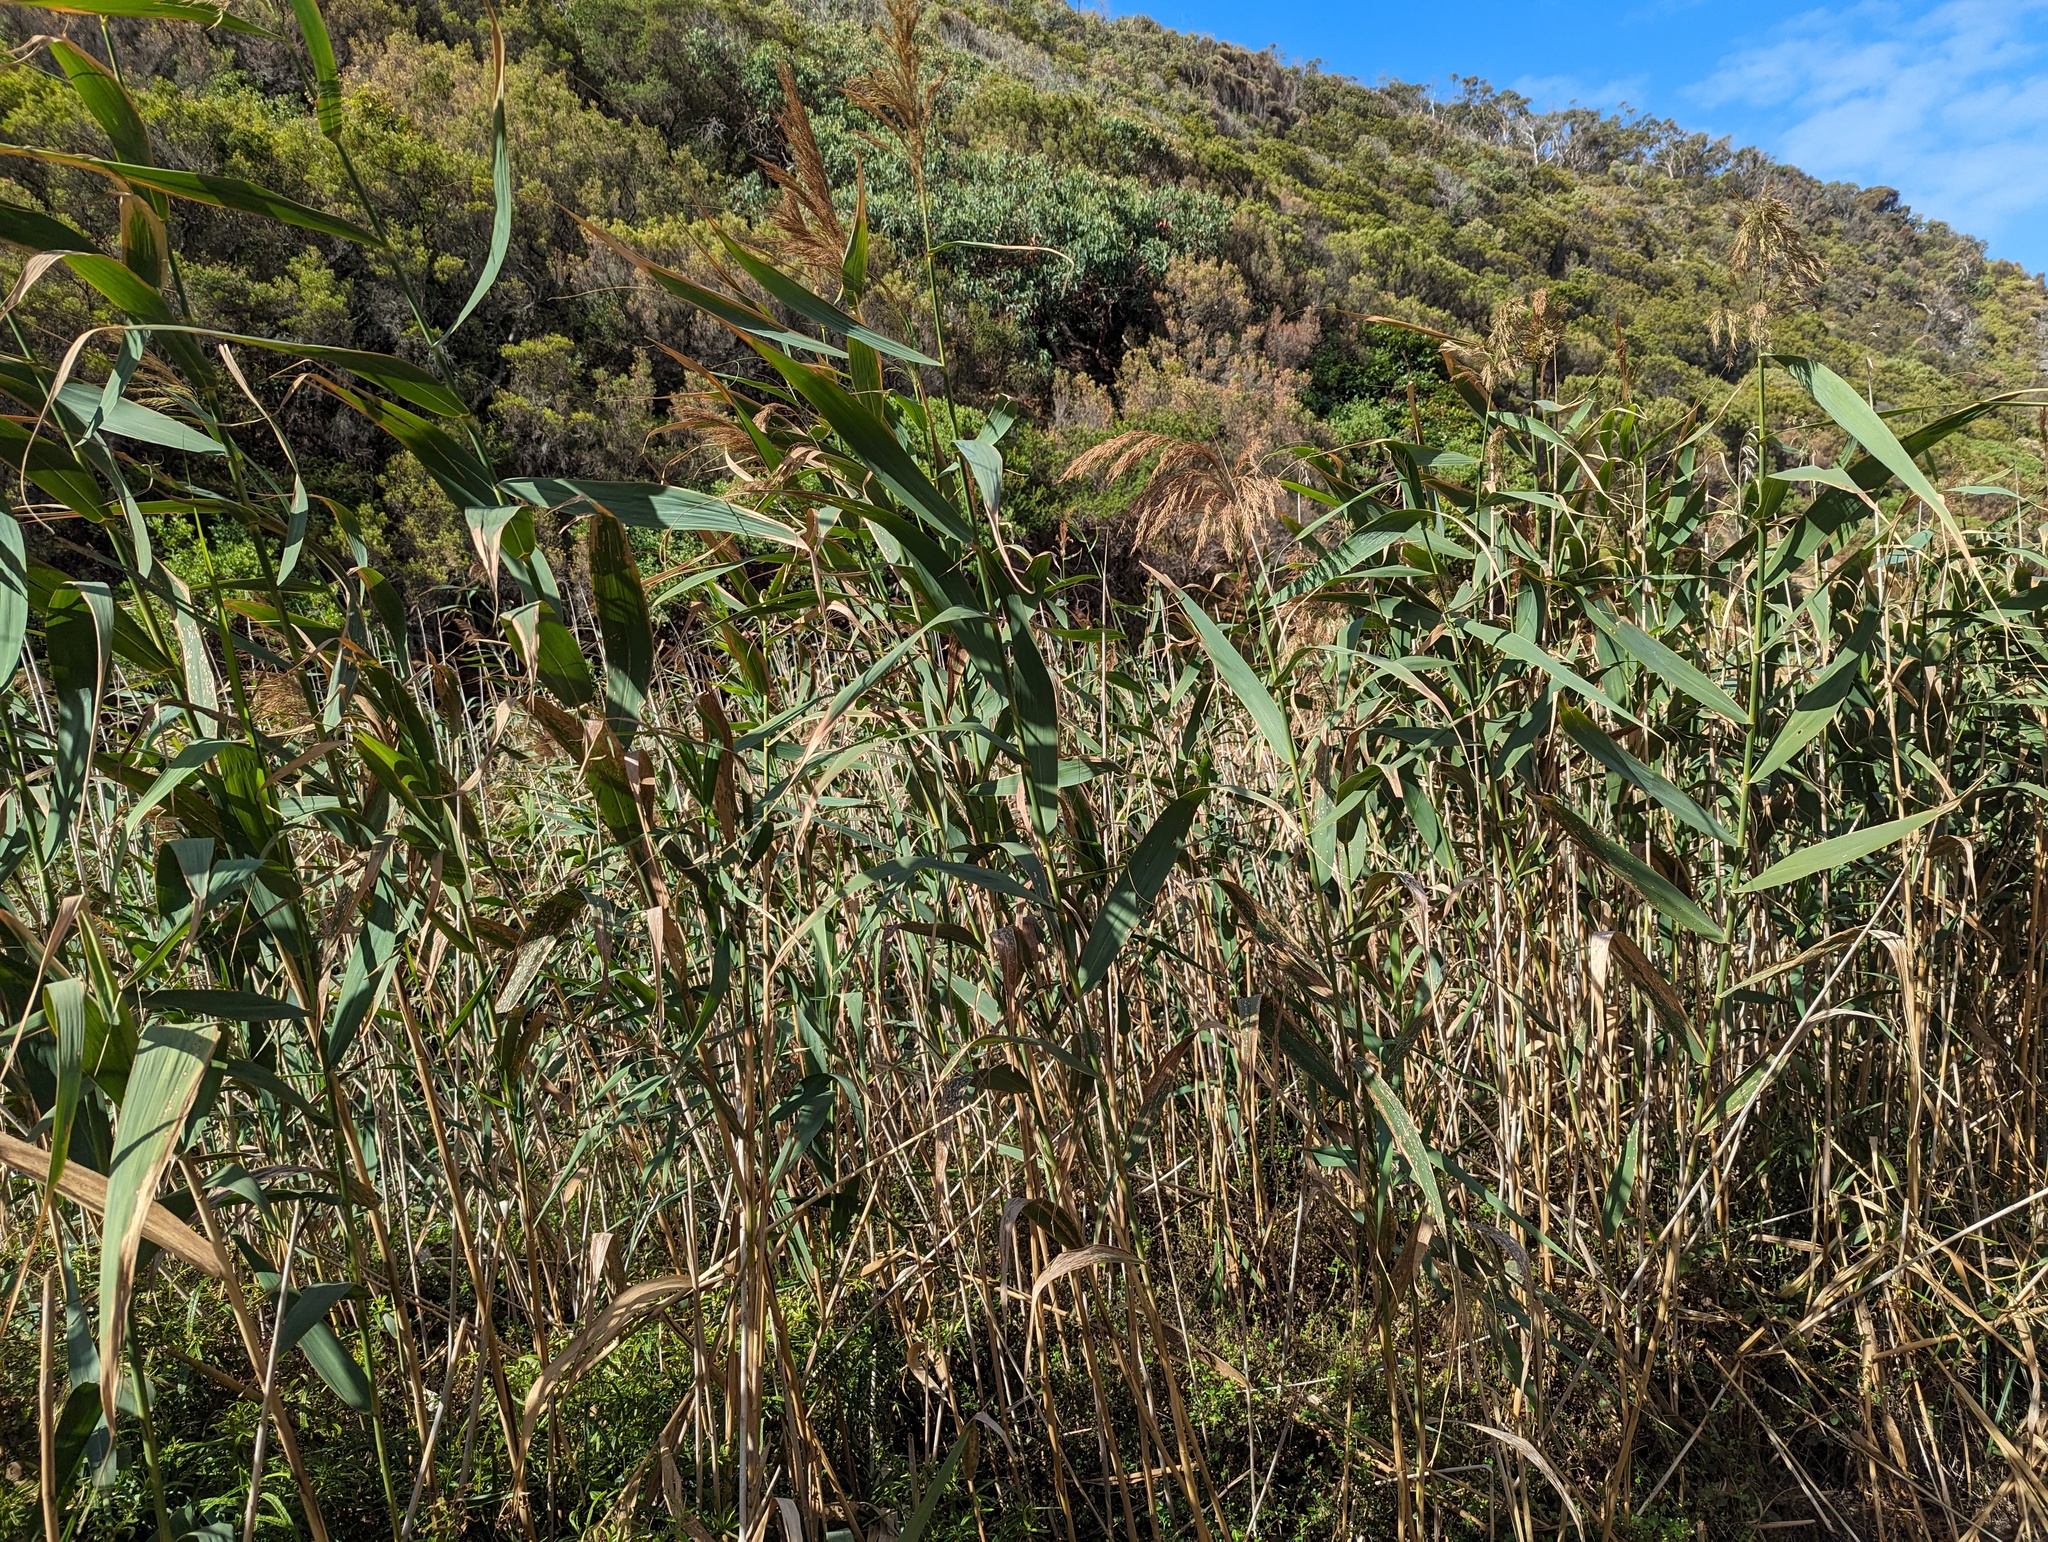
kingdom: Plantae
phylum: Tracheophyta
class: Liliopsida
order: Poales
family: Poaceae
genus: Phragmites
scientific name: Phragmites australis
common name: Common reed
